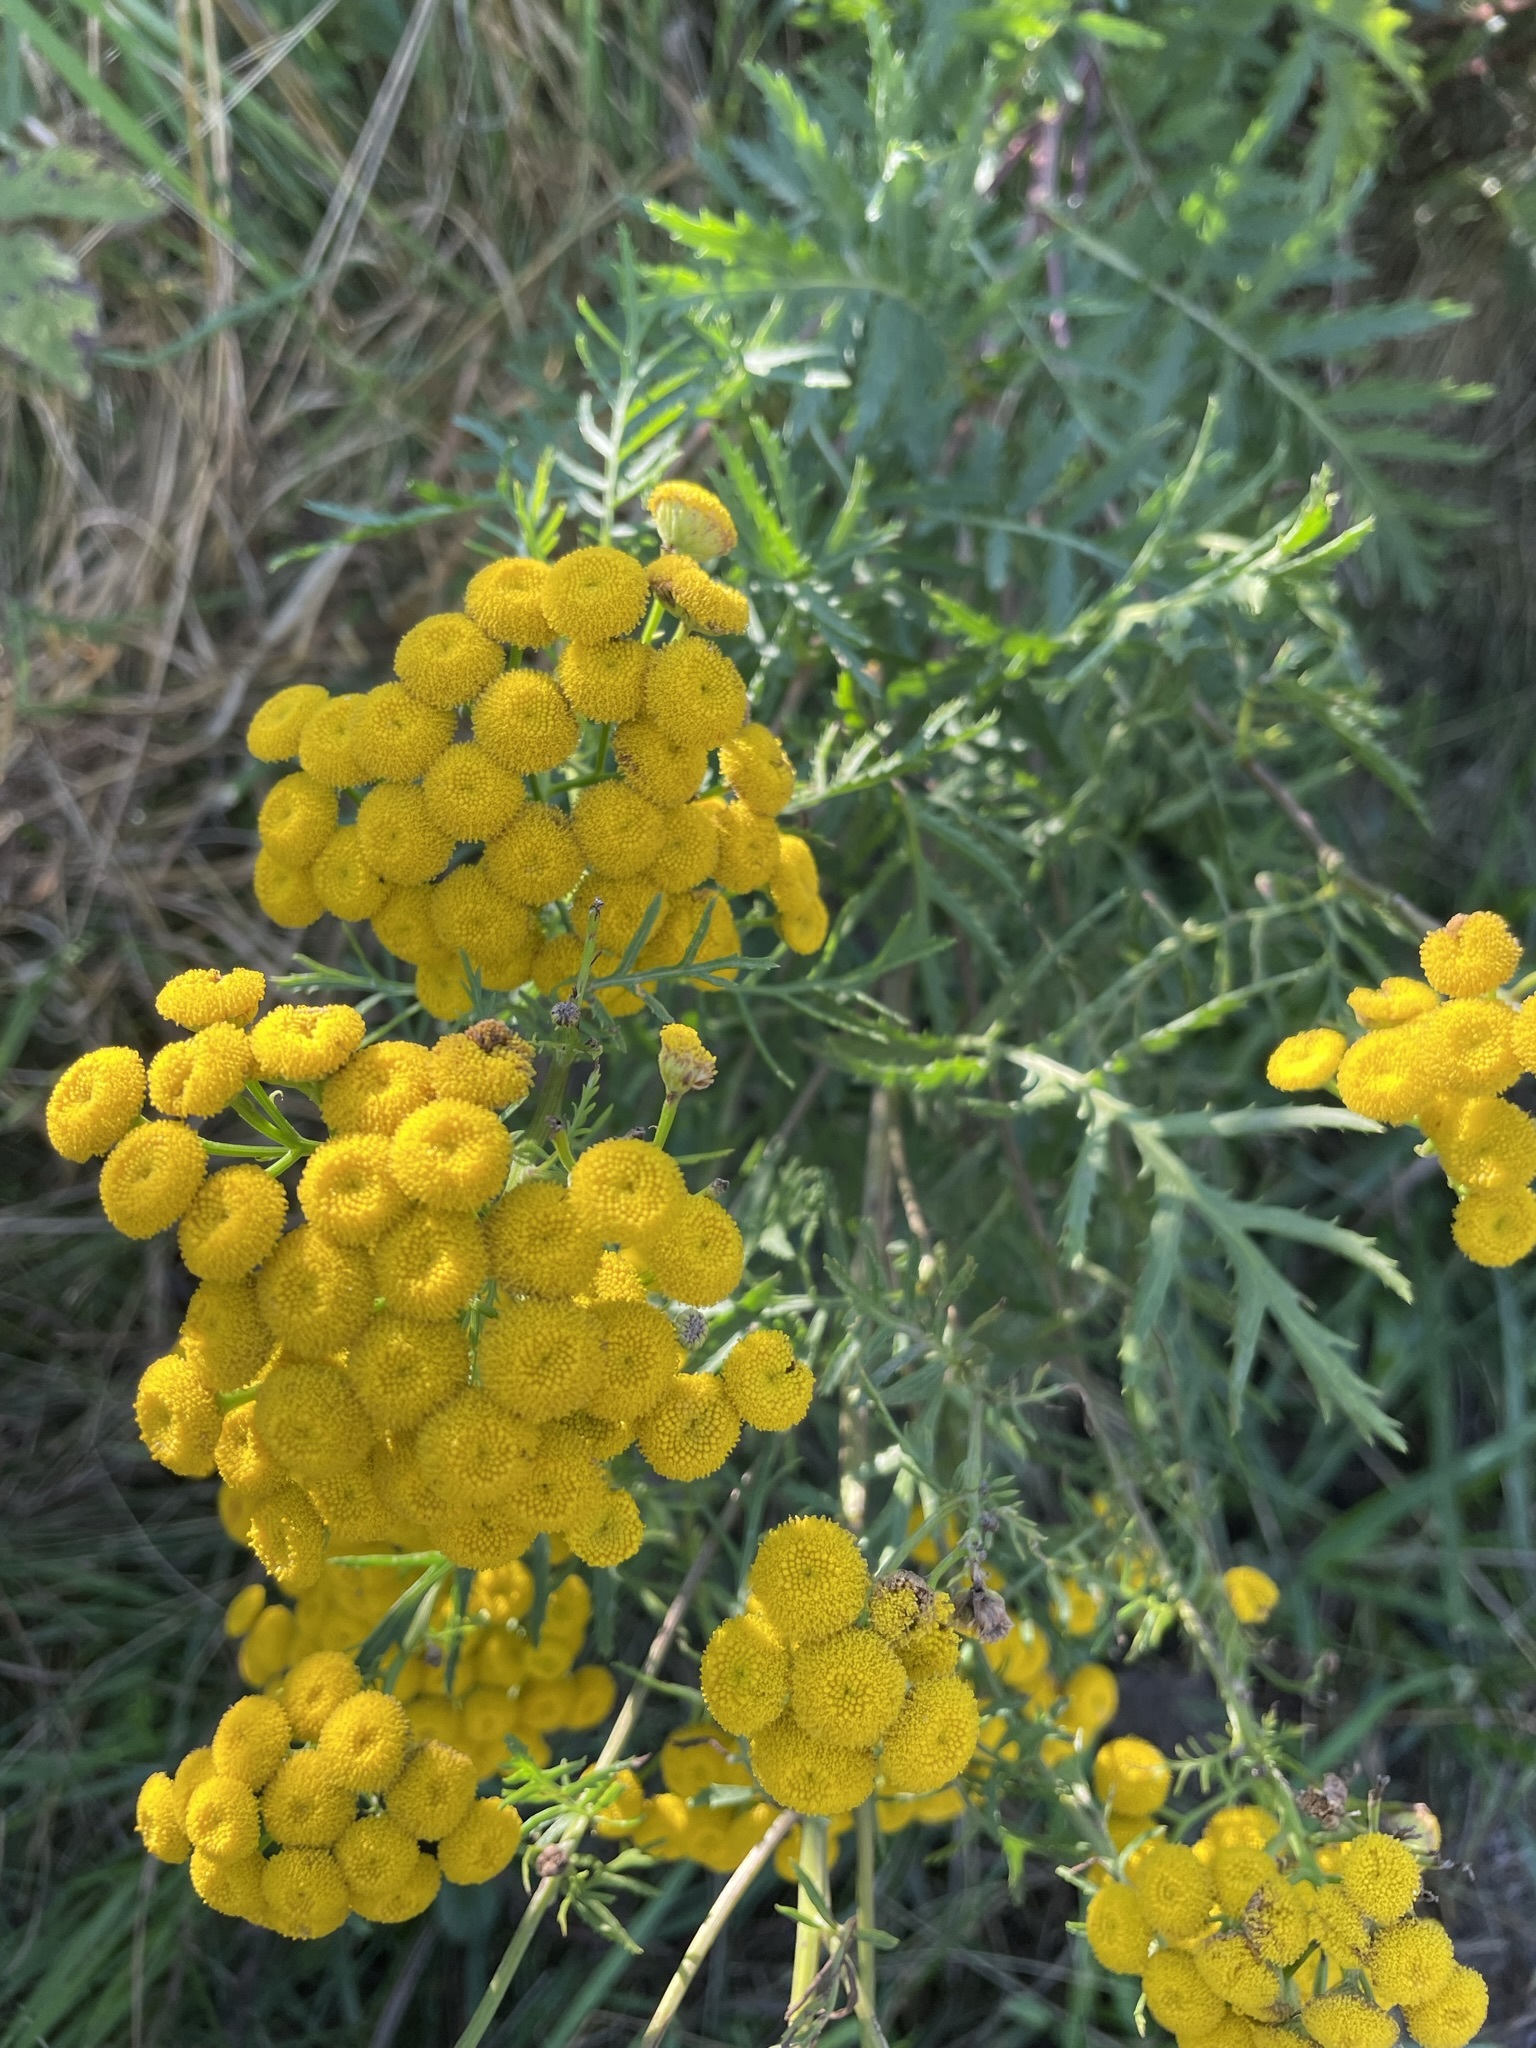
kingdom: Plantae
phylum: Tracheophyta
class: Magnoliopsida
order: Asterales
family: Asteraceae
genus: Tanacetum
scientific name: Tanacetum vulgare
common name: Common tansy
